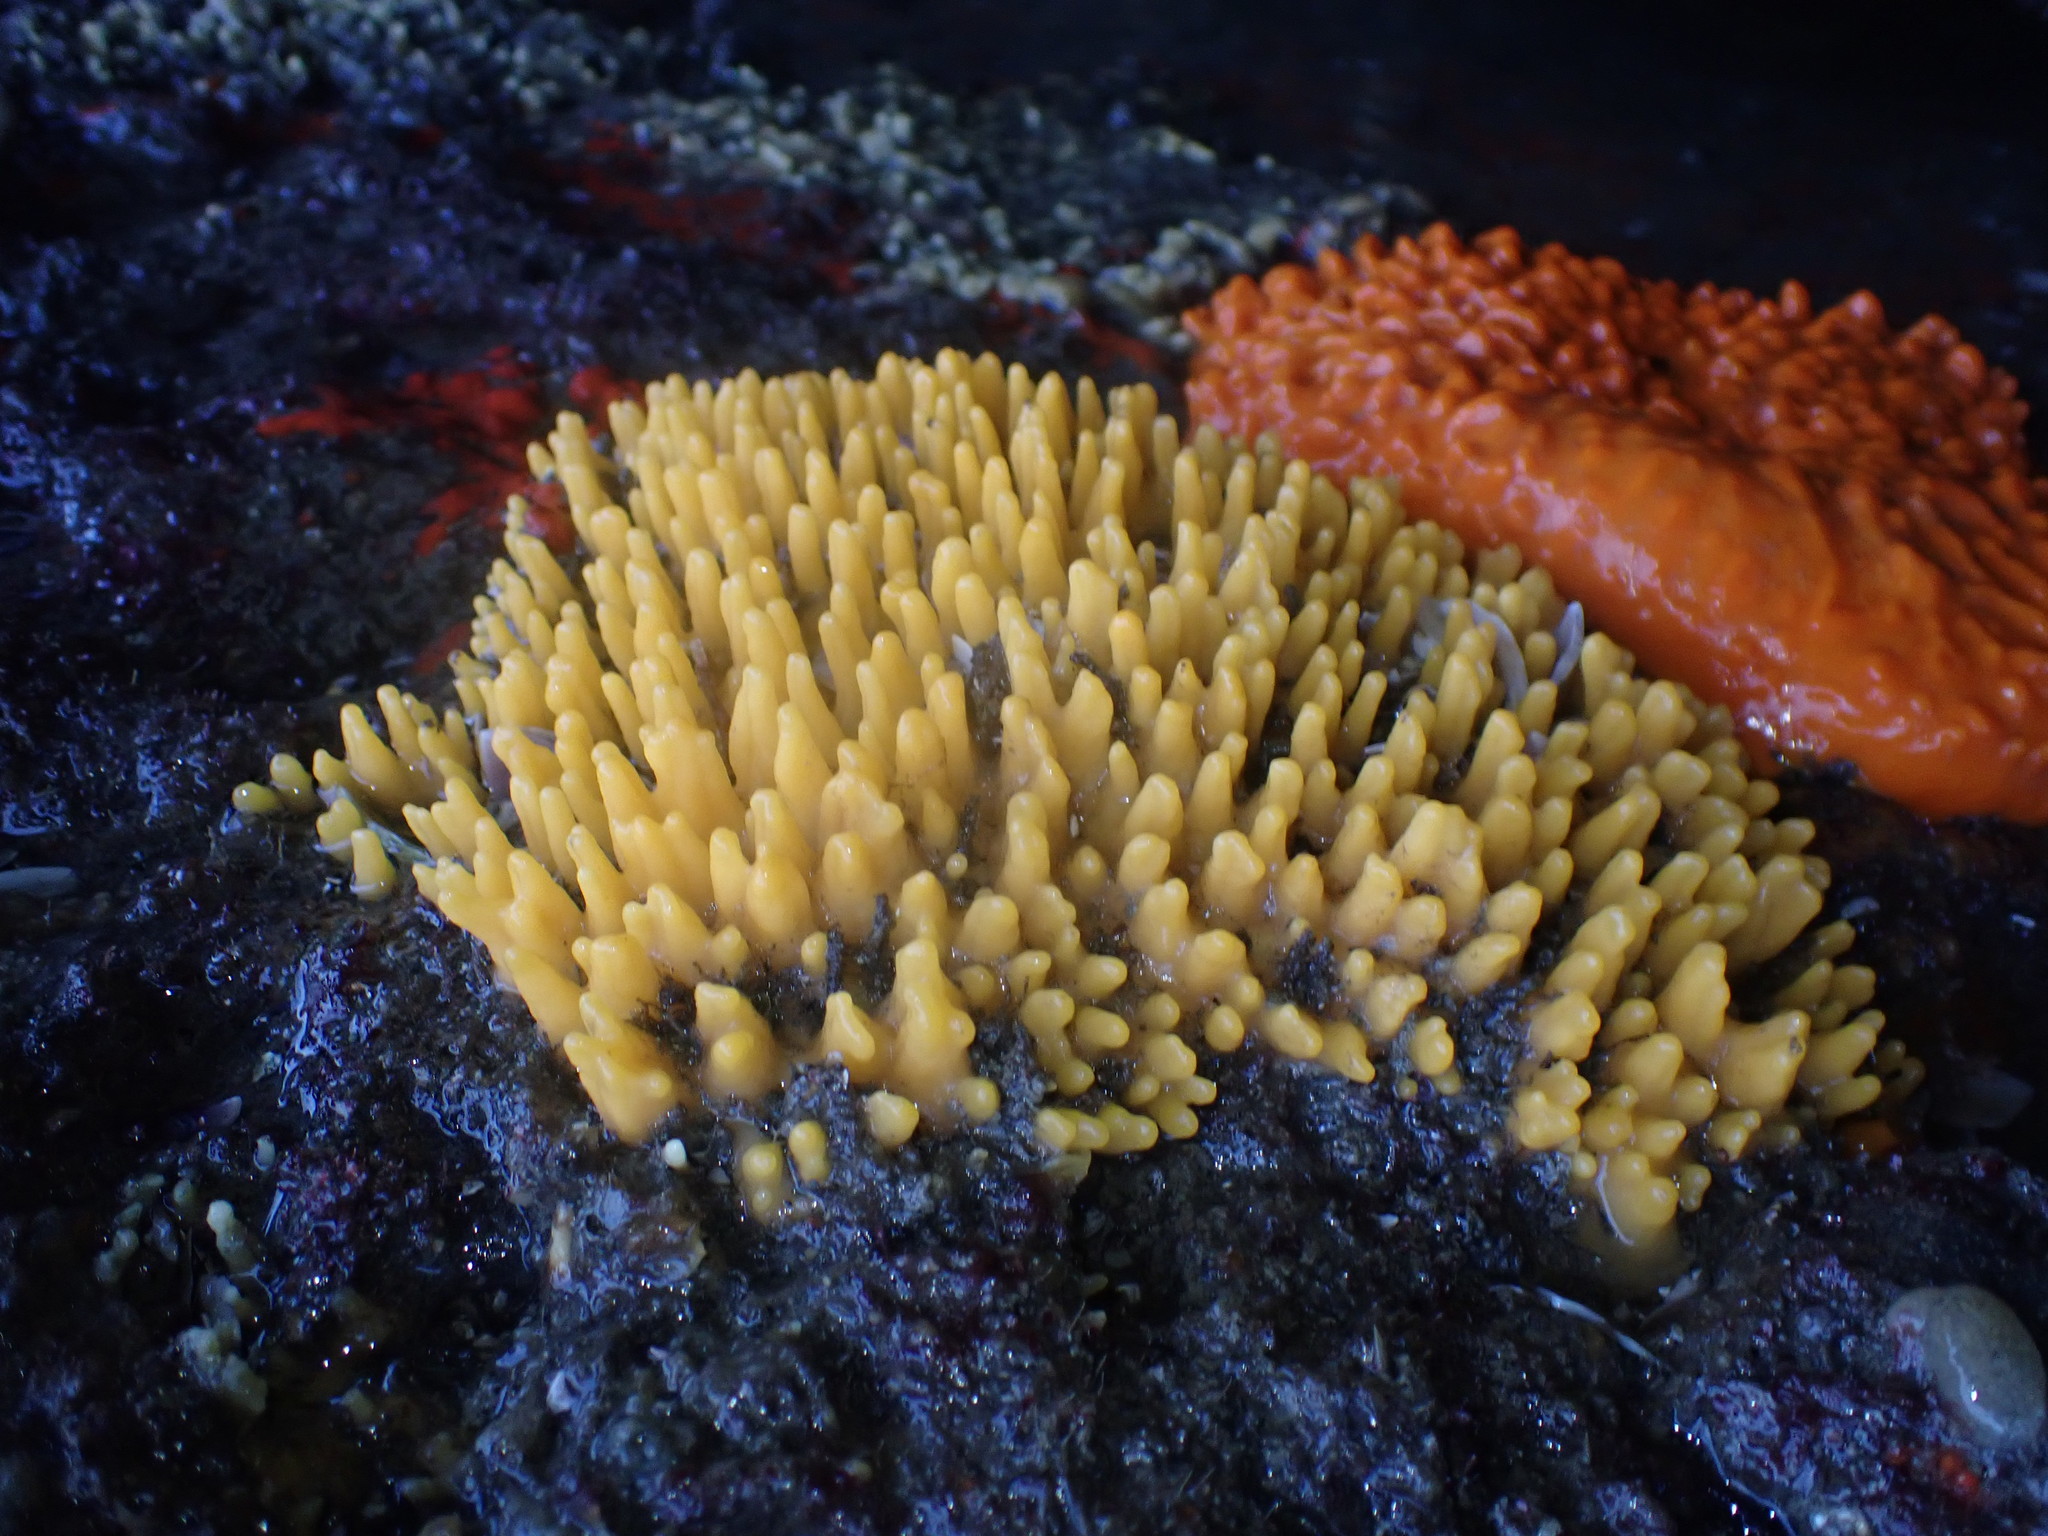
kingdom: Animalia
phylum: Porifera
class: Demospongiae
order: Suberitida
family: Halichondriidae
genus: Ciocalypta
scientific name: Ciocalypta polymastia
